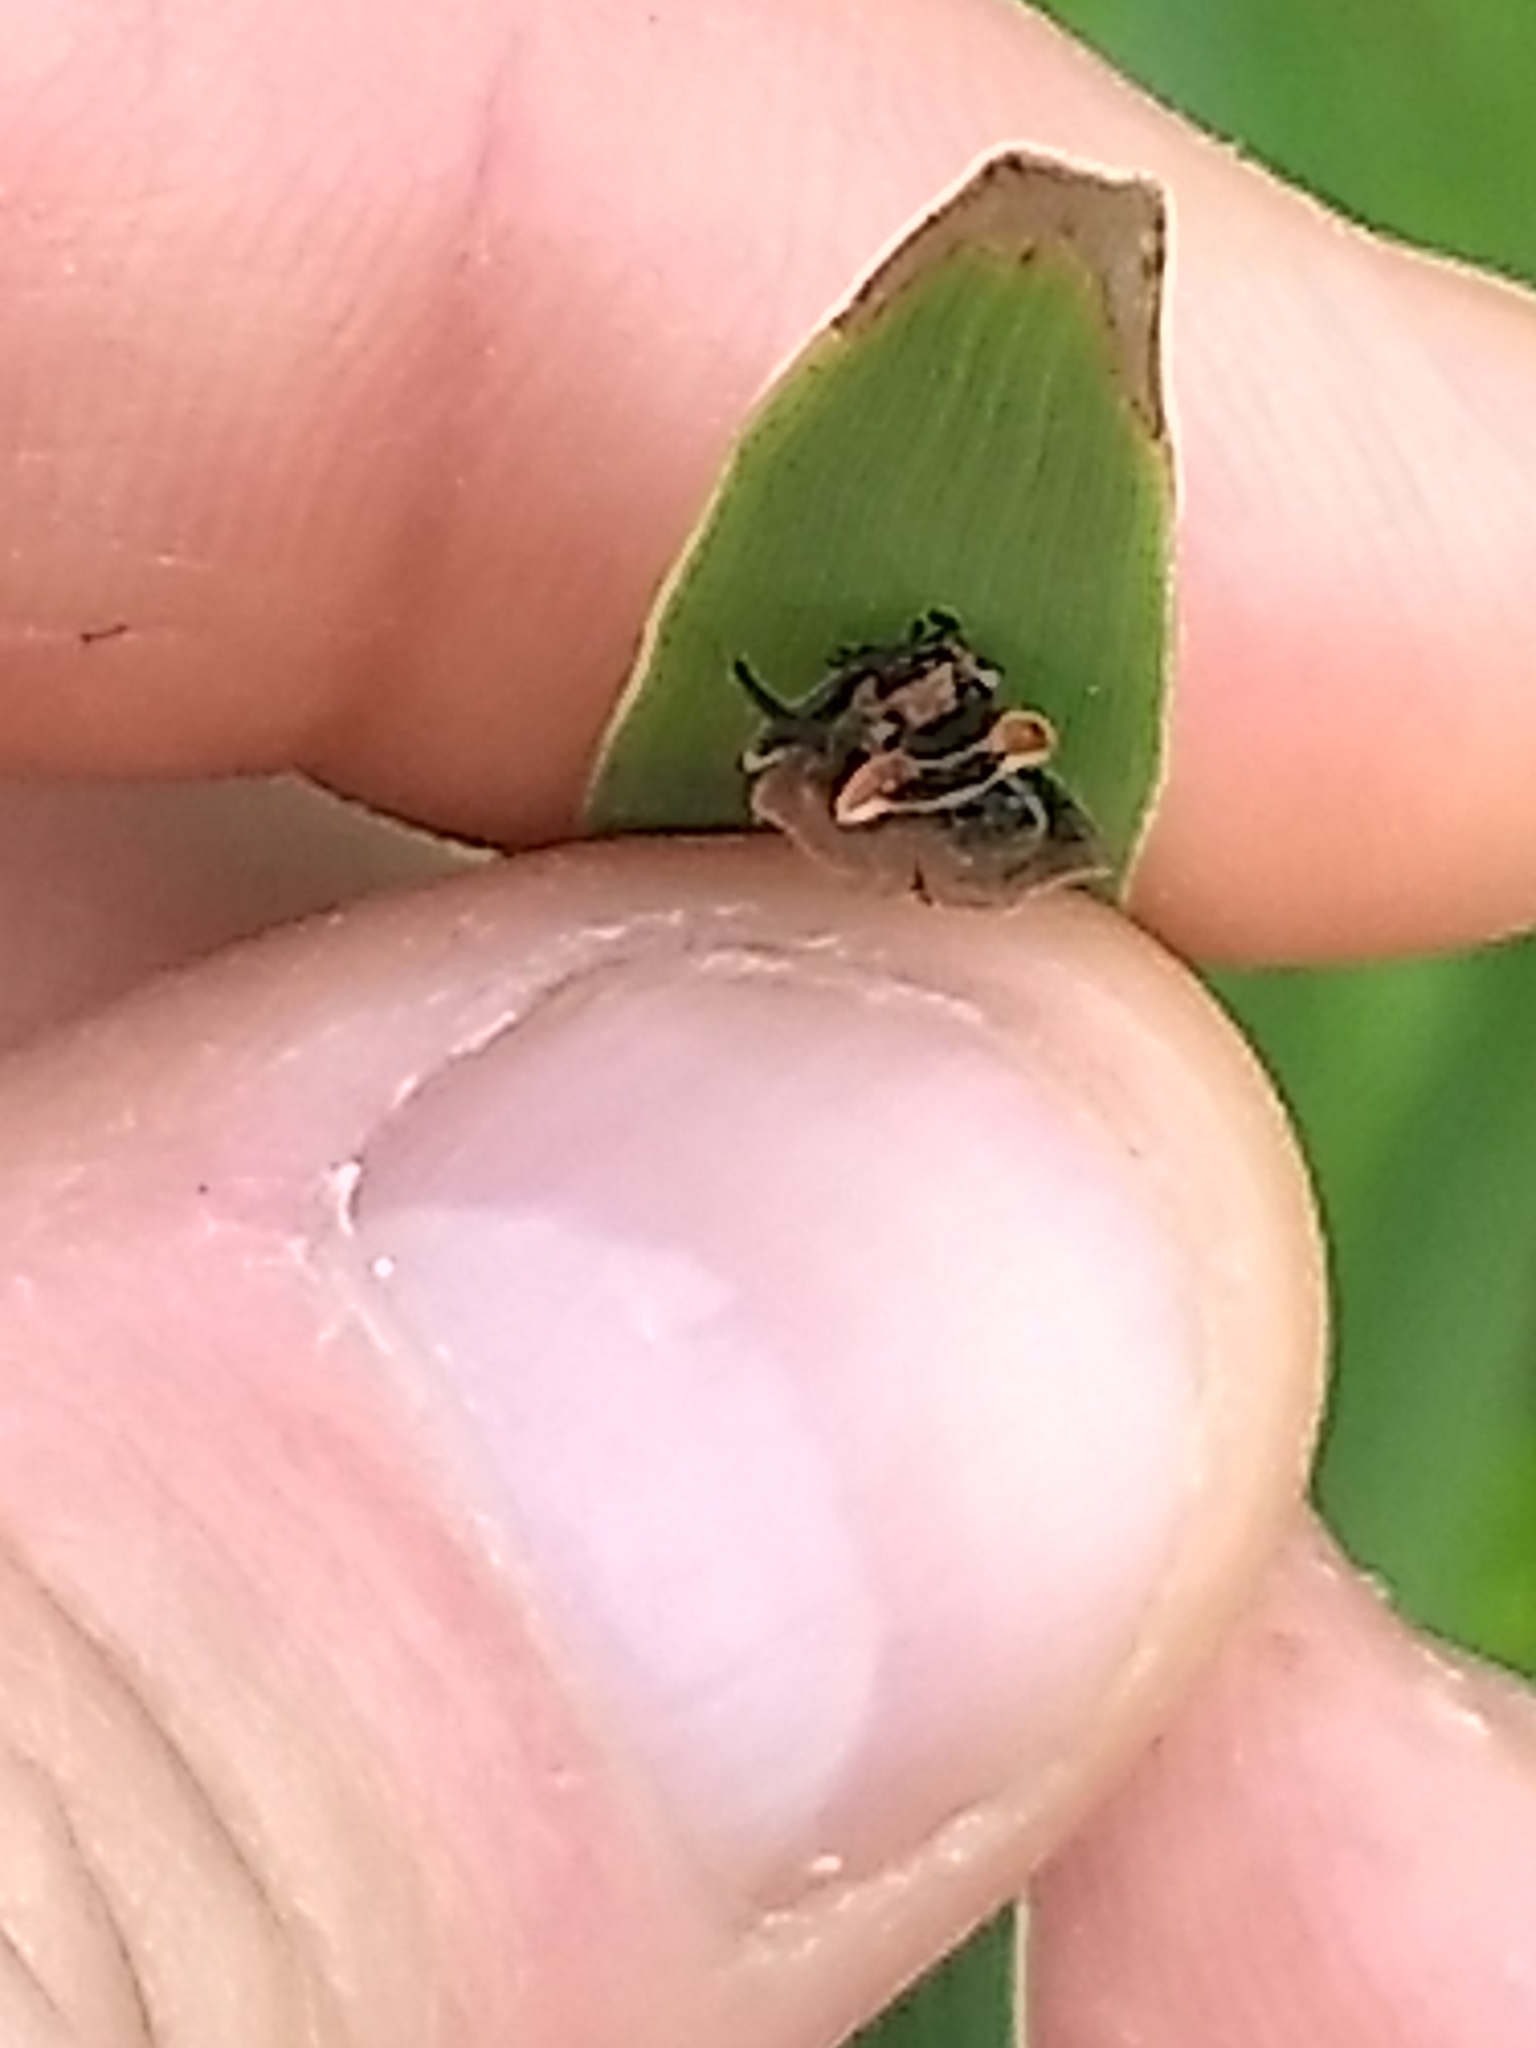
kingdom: Animalia
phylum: Arthropoda
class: Insecta
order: Coleoptera
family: Cantharidae
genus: Podabrus
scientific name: Podabrus tricostatus
